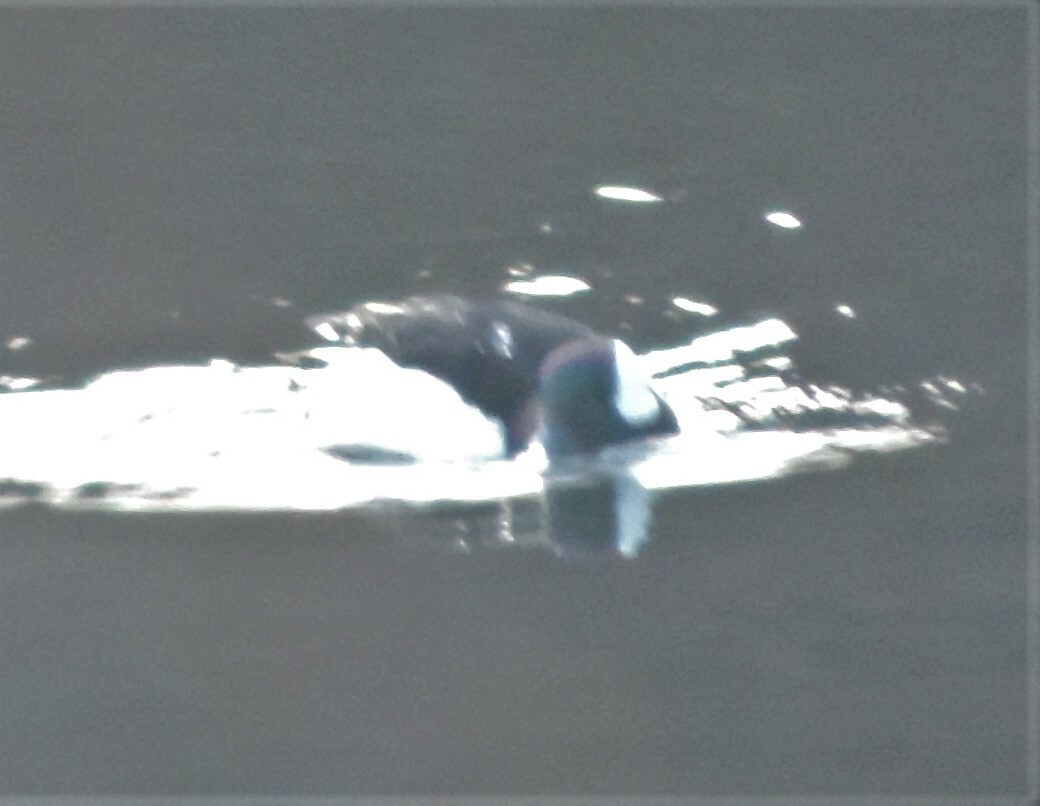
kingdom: Animalia
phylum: Chordata
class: Aves
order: Anseriformes
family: Anatidae
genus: Bucephala
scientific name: Bucephala albeola
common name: Bufflehead
